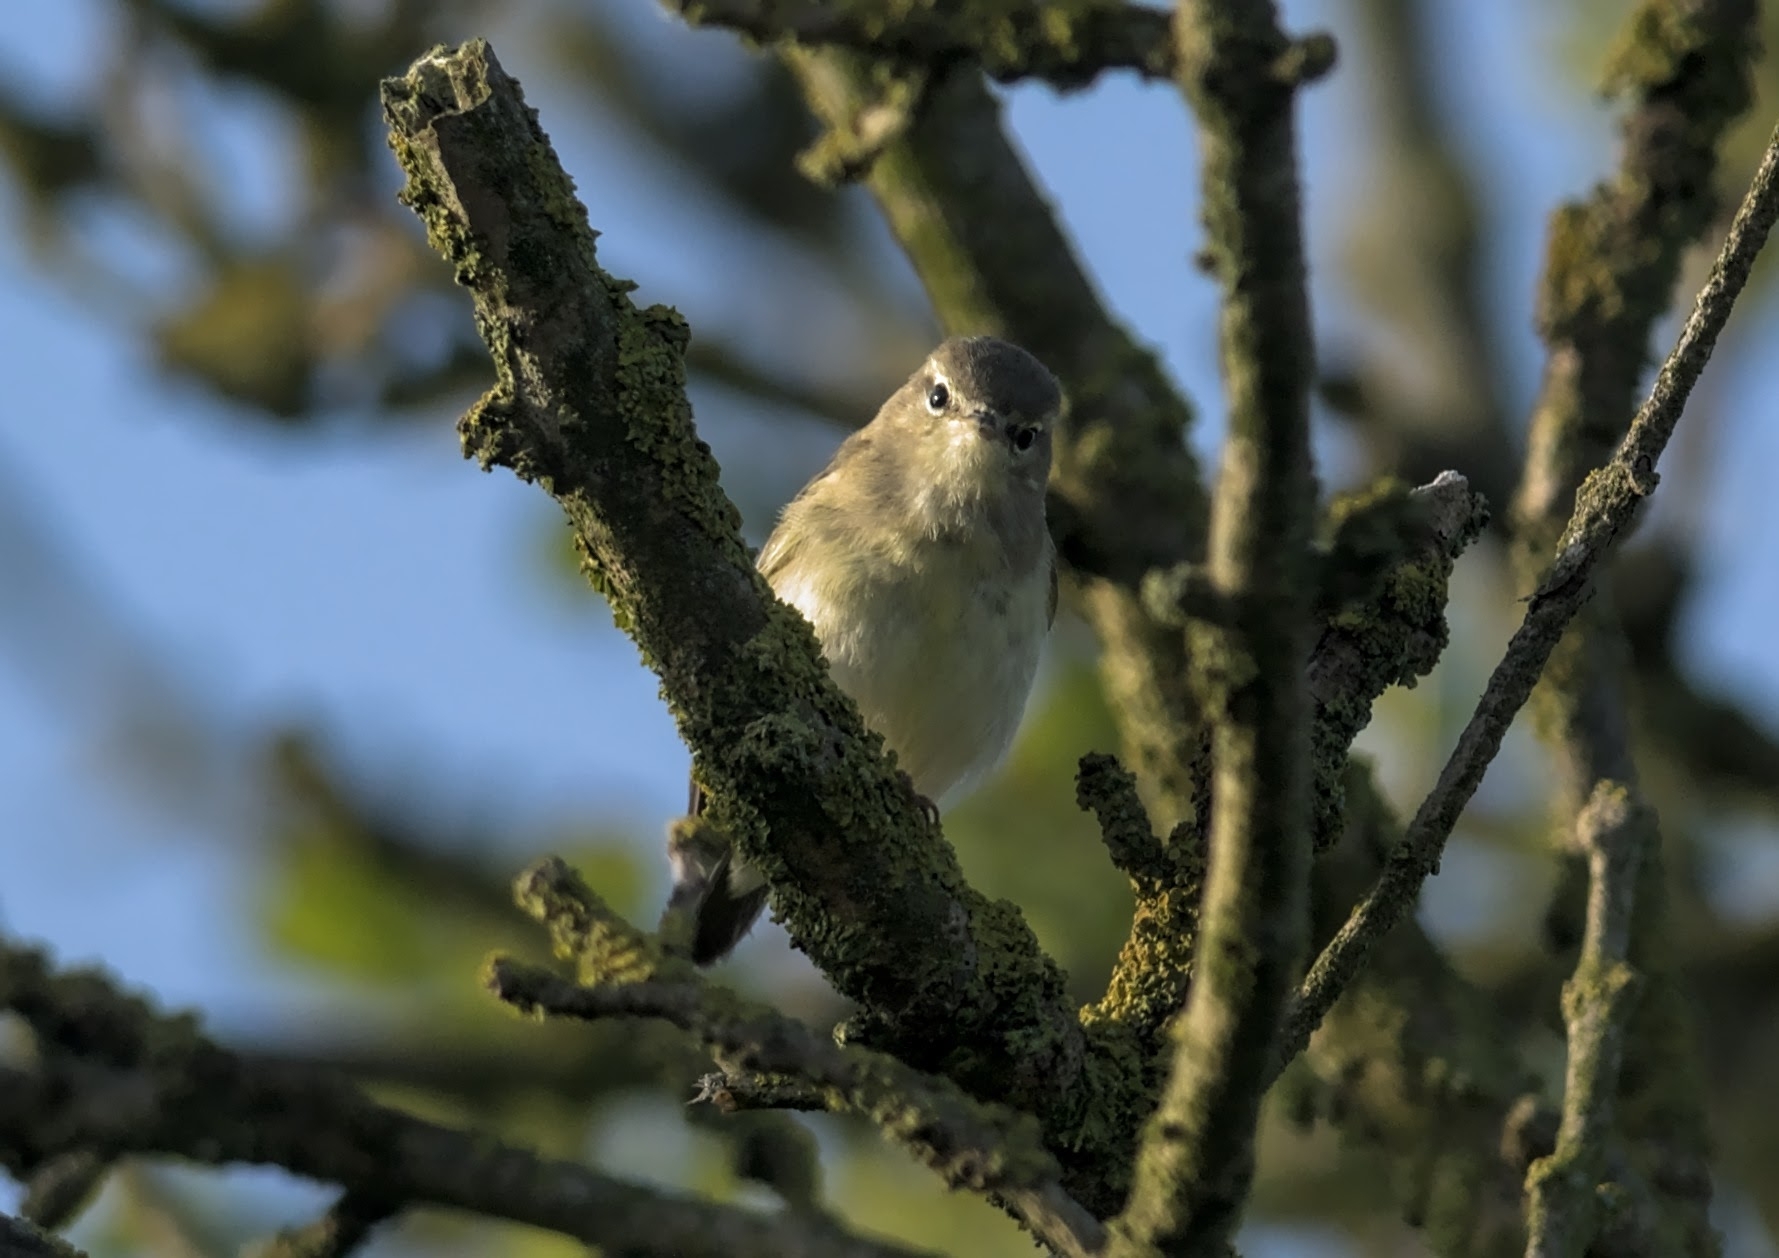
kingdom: Animalia
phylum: Chordata
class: Aves
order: Passeriformes
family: Phylloscopidae
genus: Phylloscopus
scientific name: Phylloscopus collybita
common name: Common chiffchaff
